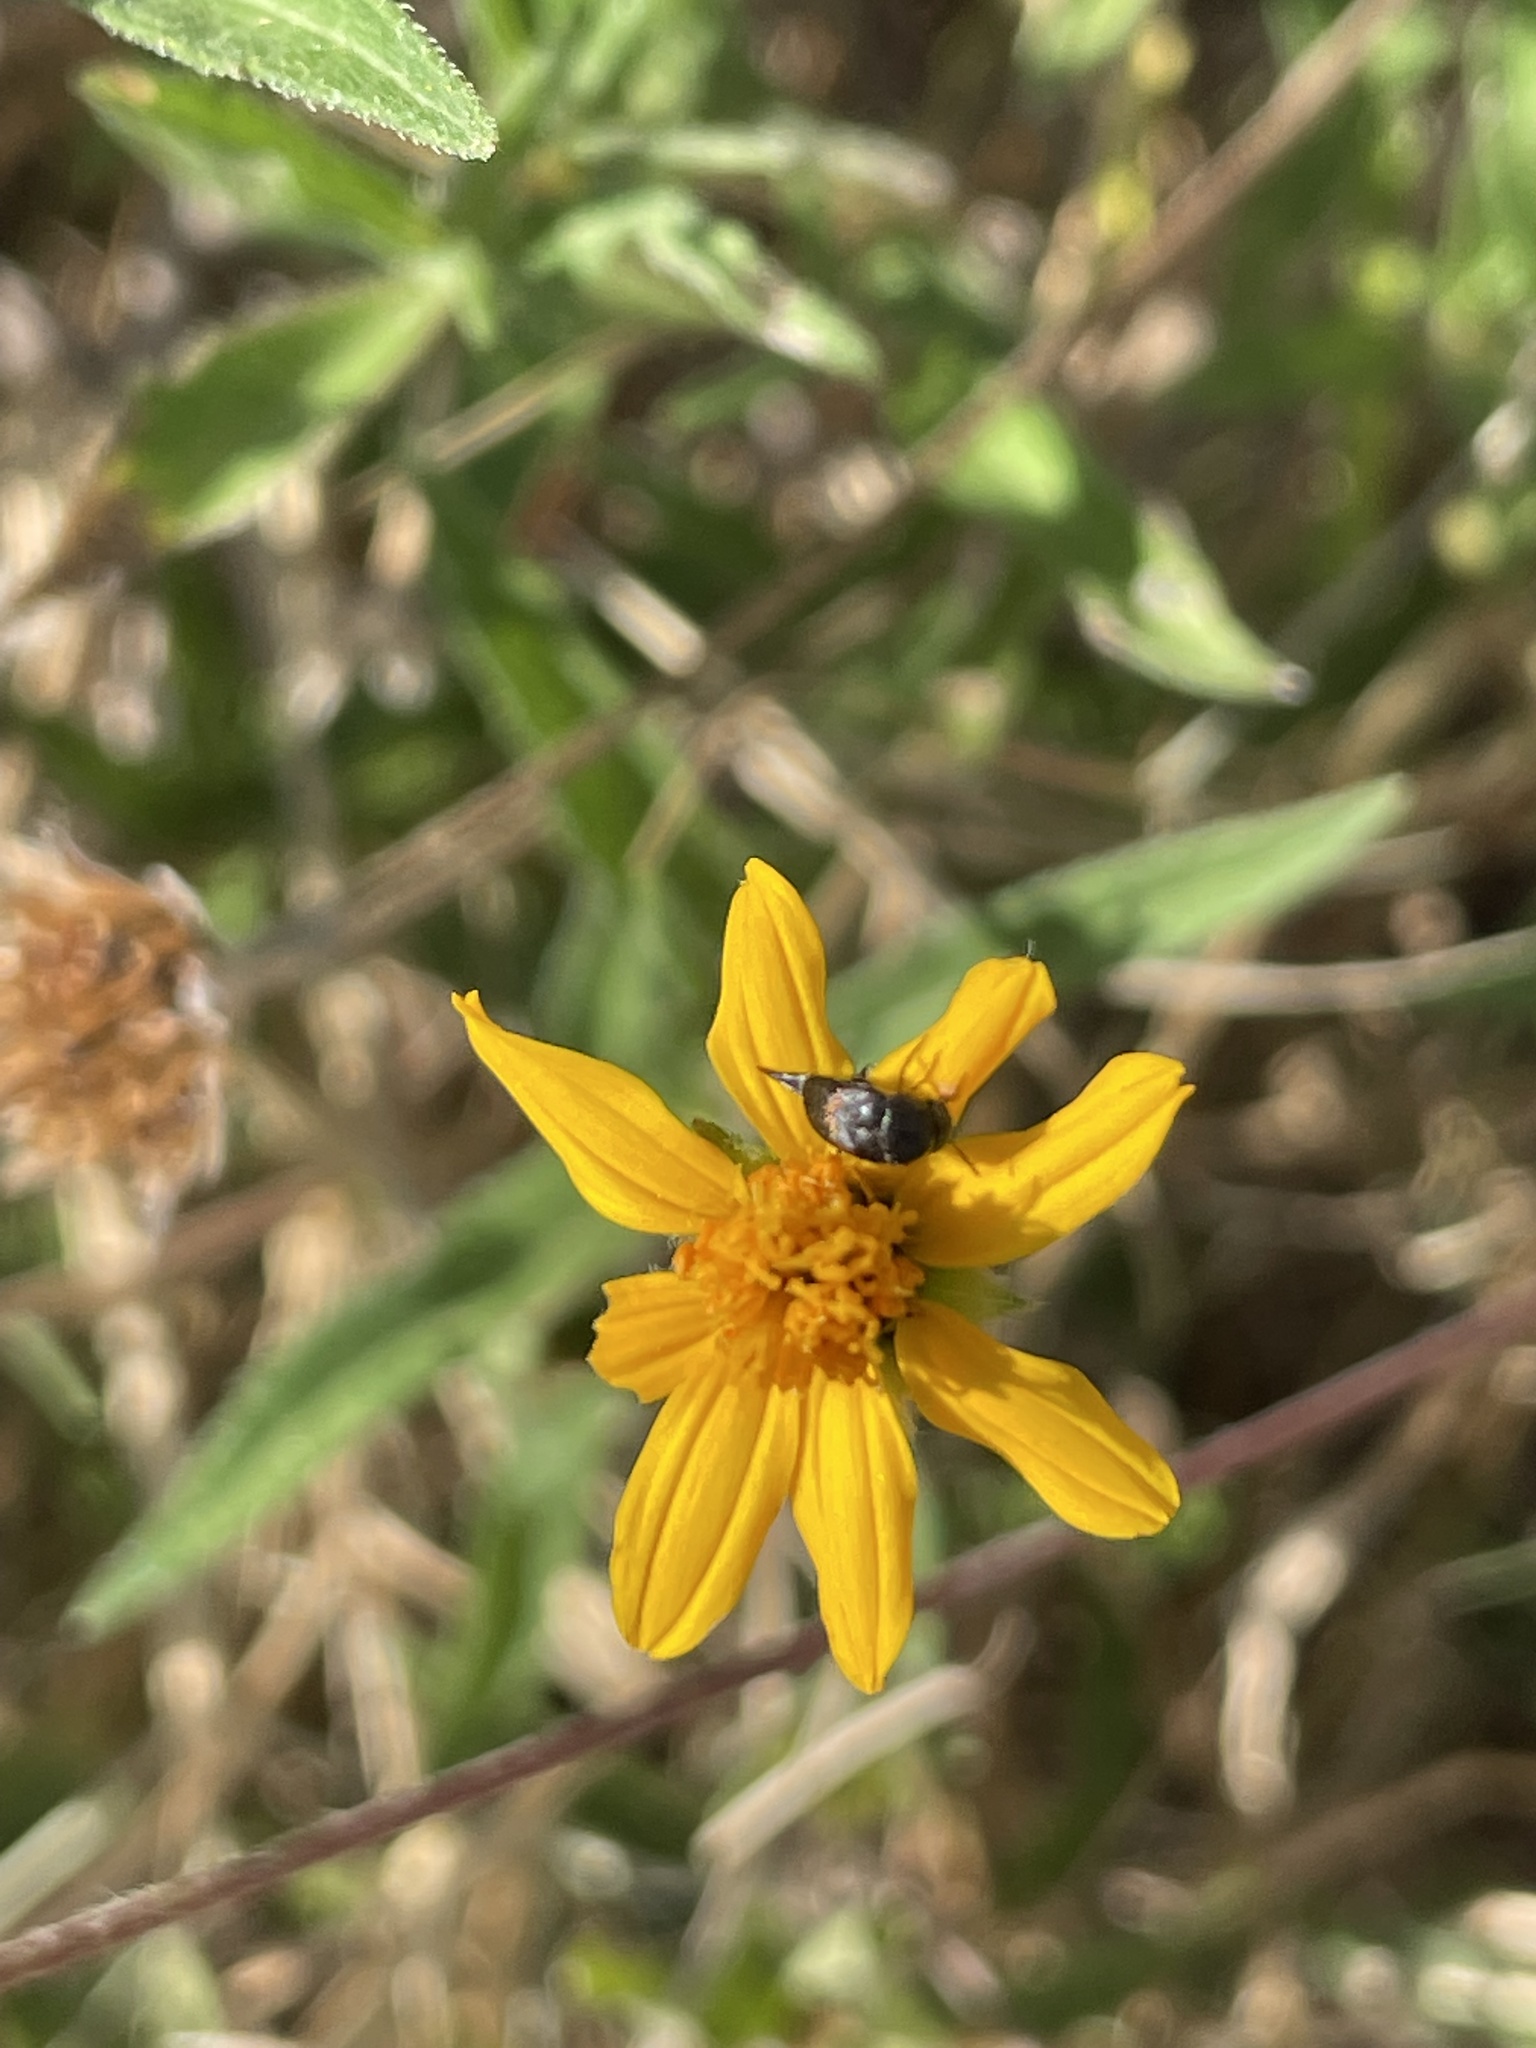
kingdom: Plantae
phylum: Tracheophyta
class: Magnoliopsida
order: Asterales
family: Asteraceae
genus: Wedelia
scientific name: Wedelia acapulcensis
